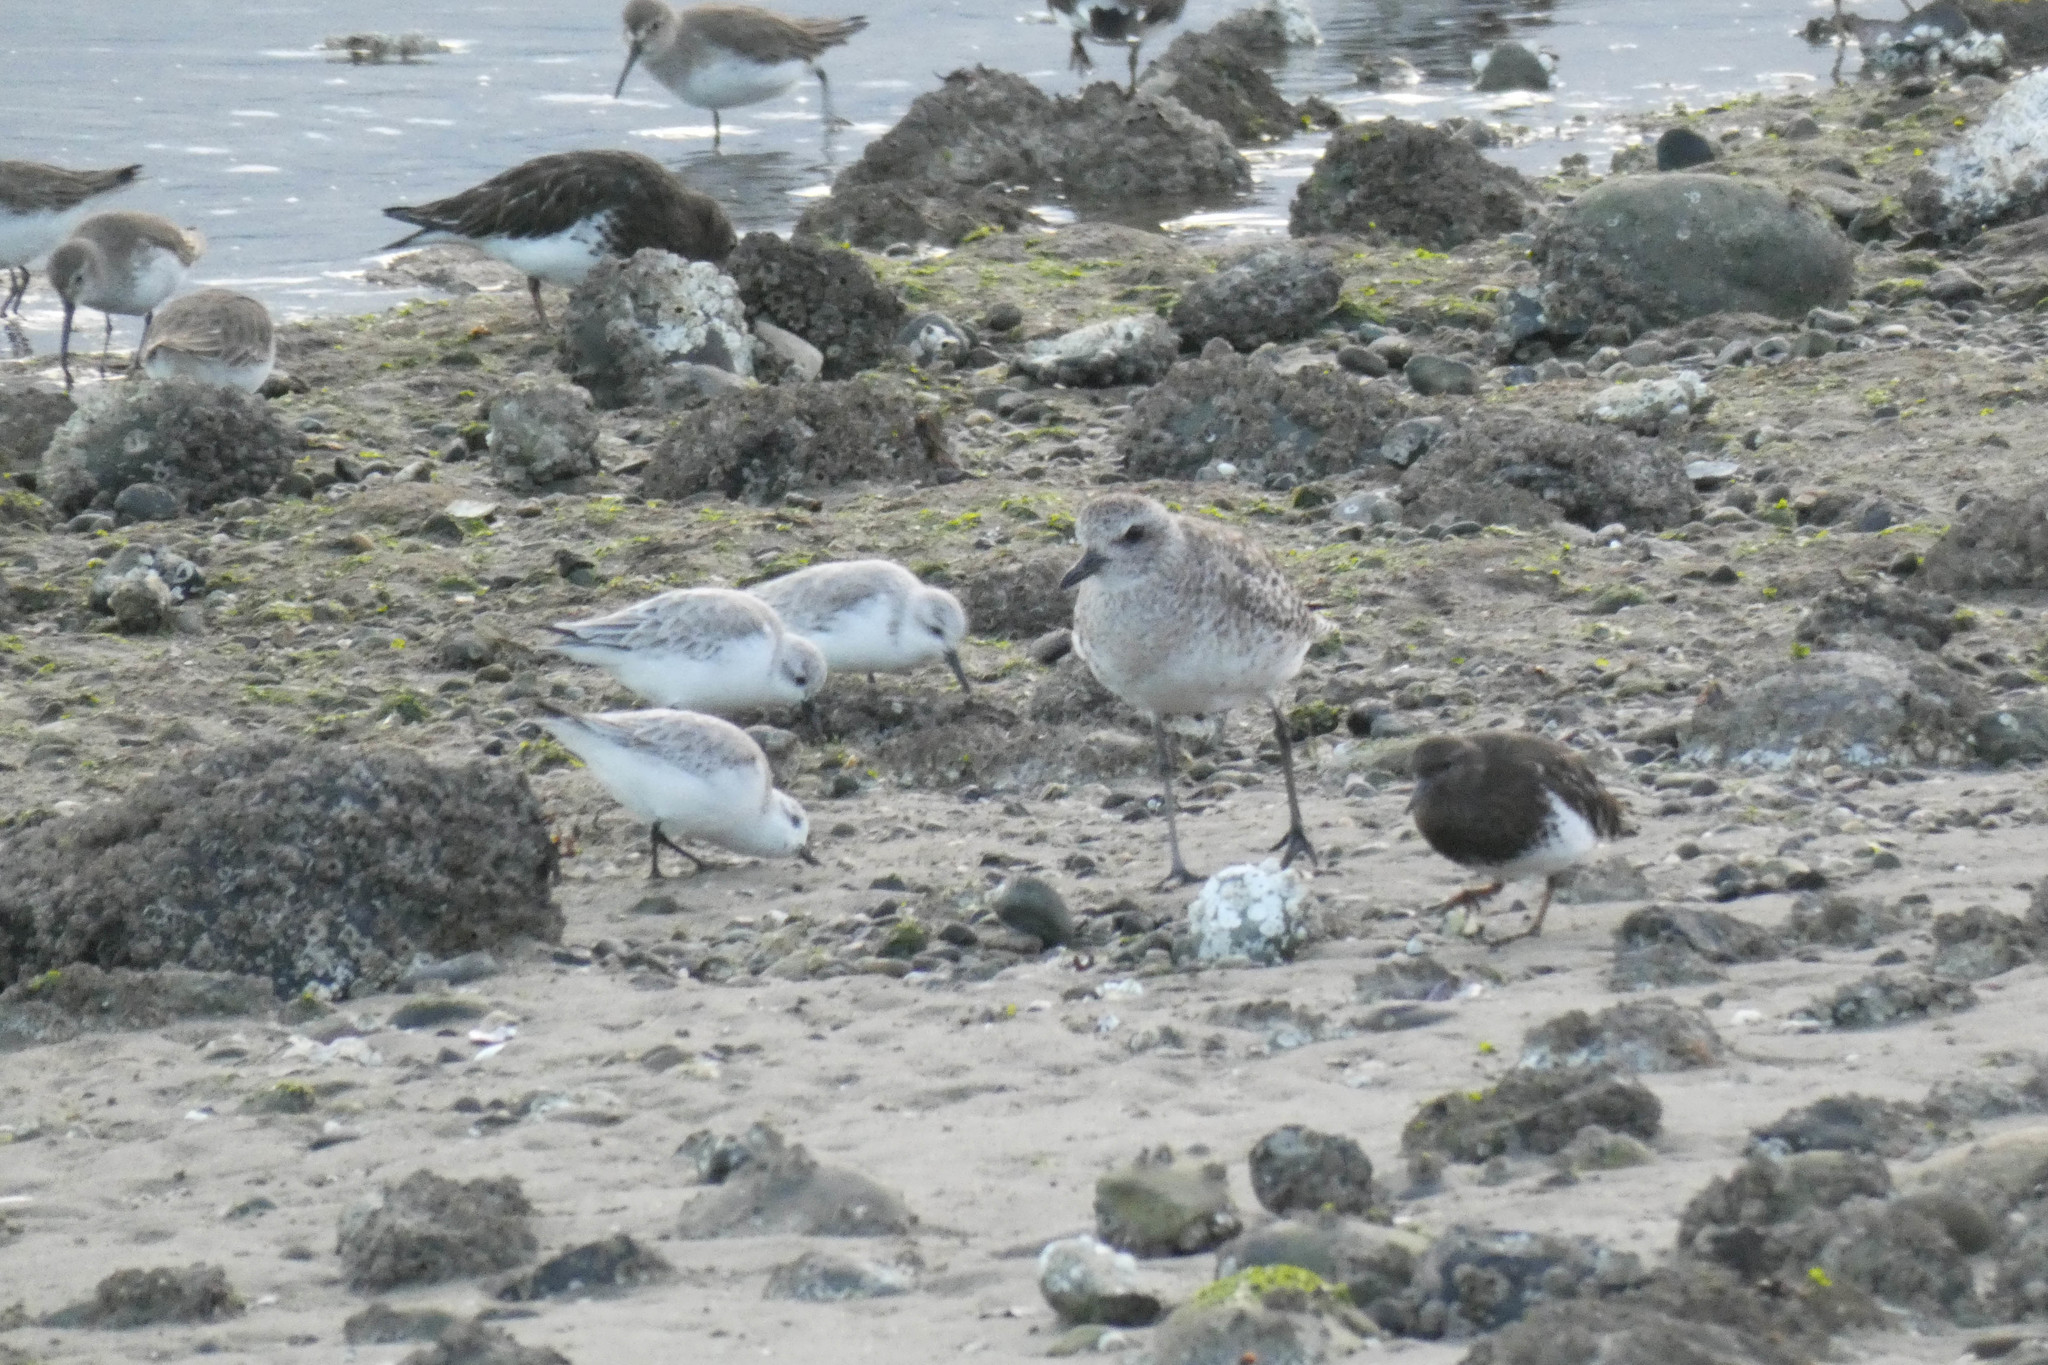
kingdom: Animalia
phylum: Chordata
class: Aves
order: Charadriiformes
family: Scolopacidae
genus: Calidris
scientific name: Calidris alba
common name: Sanderling
